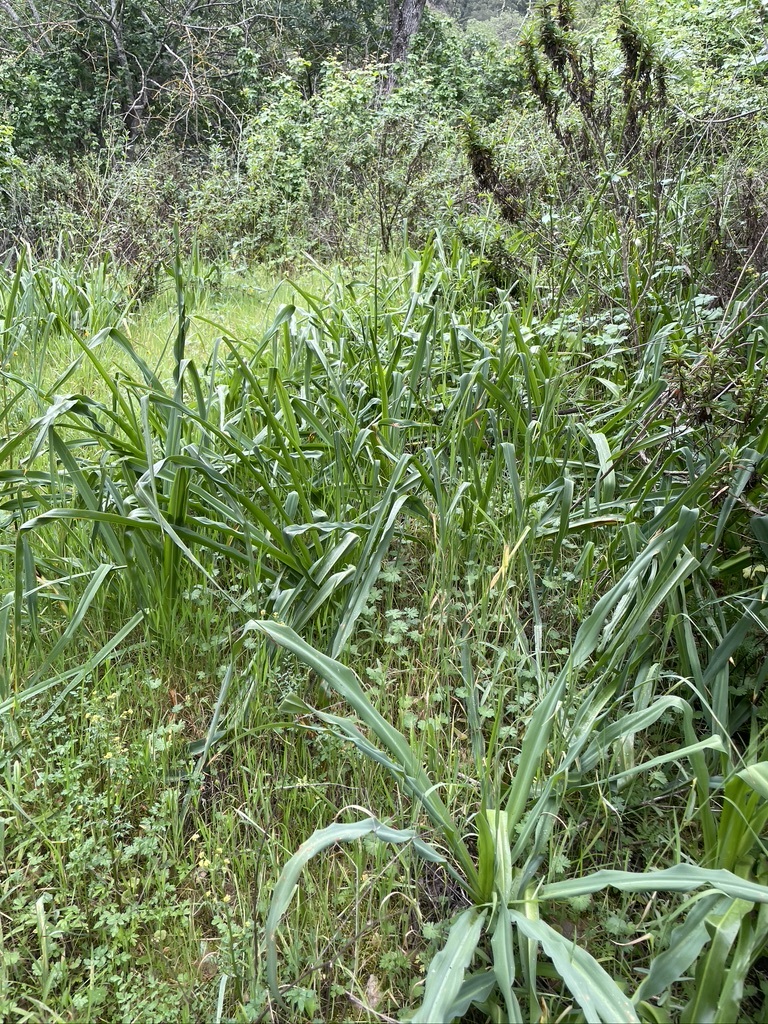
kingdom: Plantae
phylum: Tracheophyta
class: Liliopsida
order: Asparagales
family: Asparagaceae
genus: Chlorogalum
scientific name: Chlorogalum pomeridianum
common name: Amole
